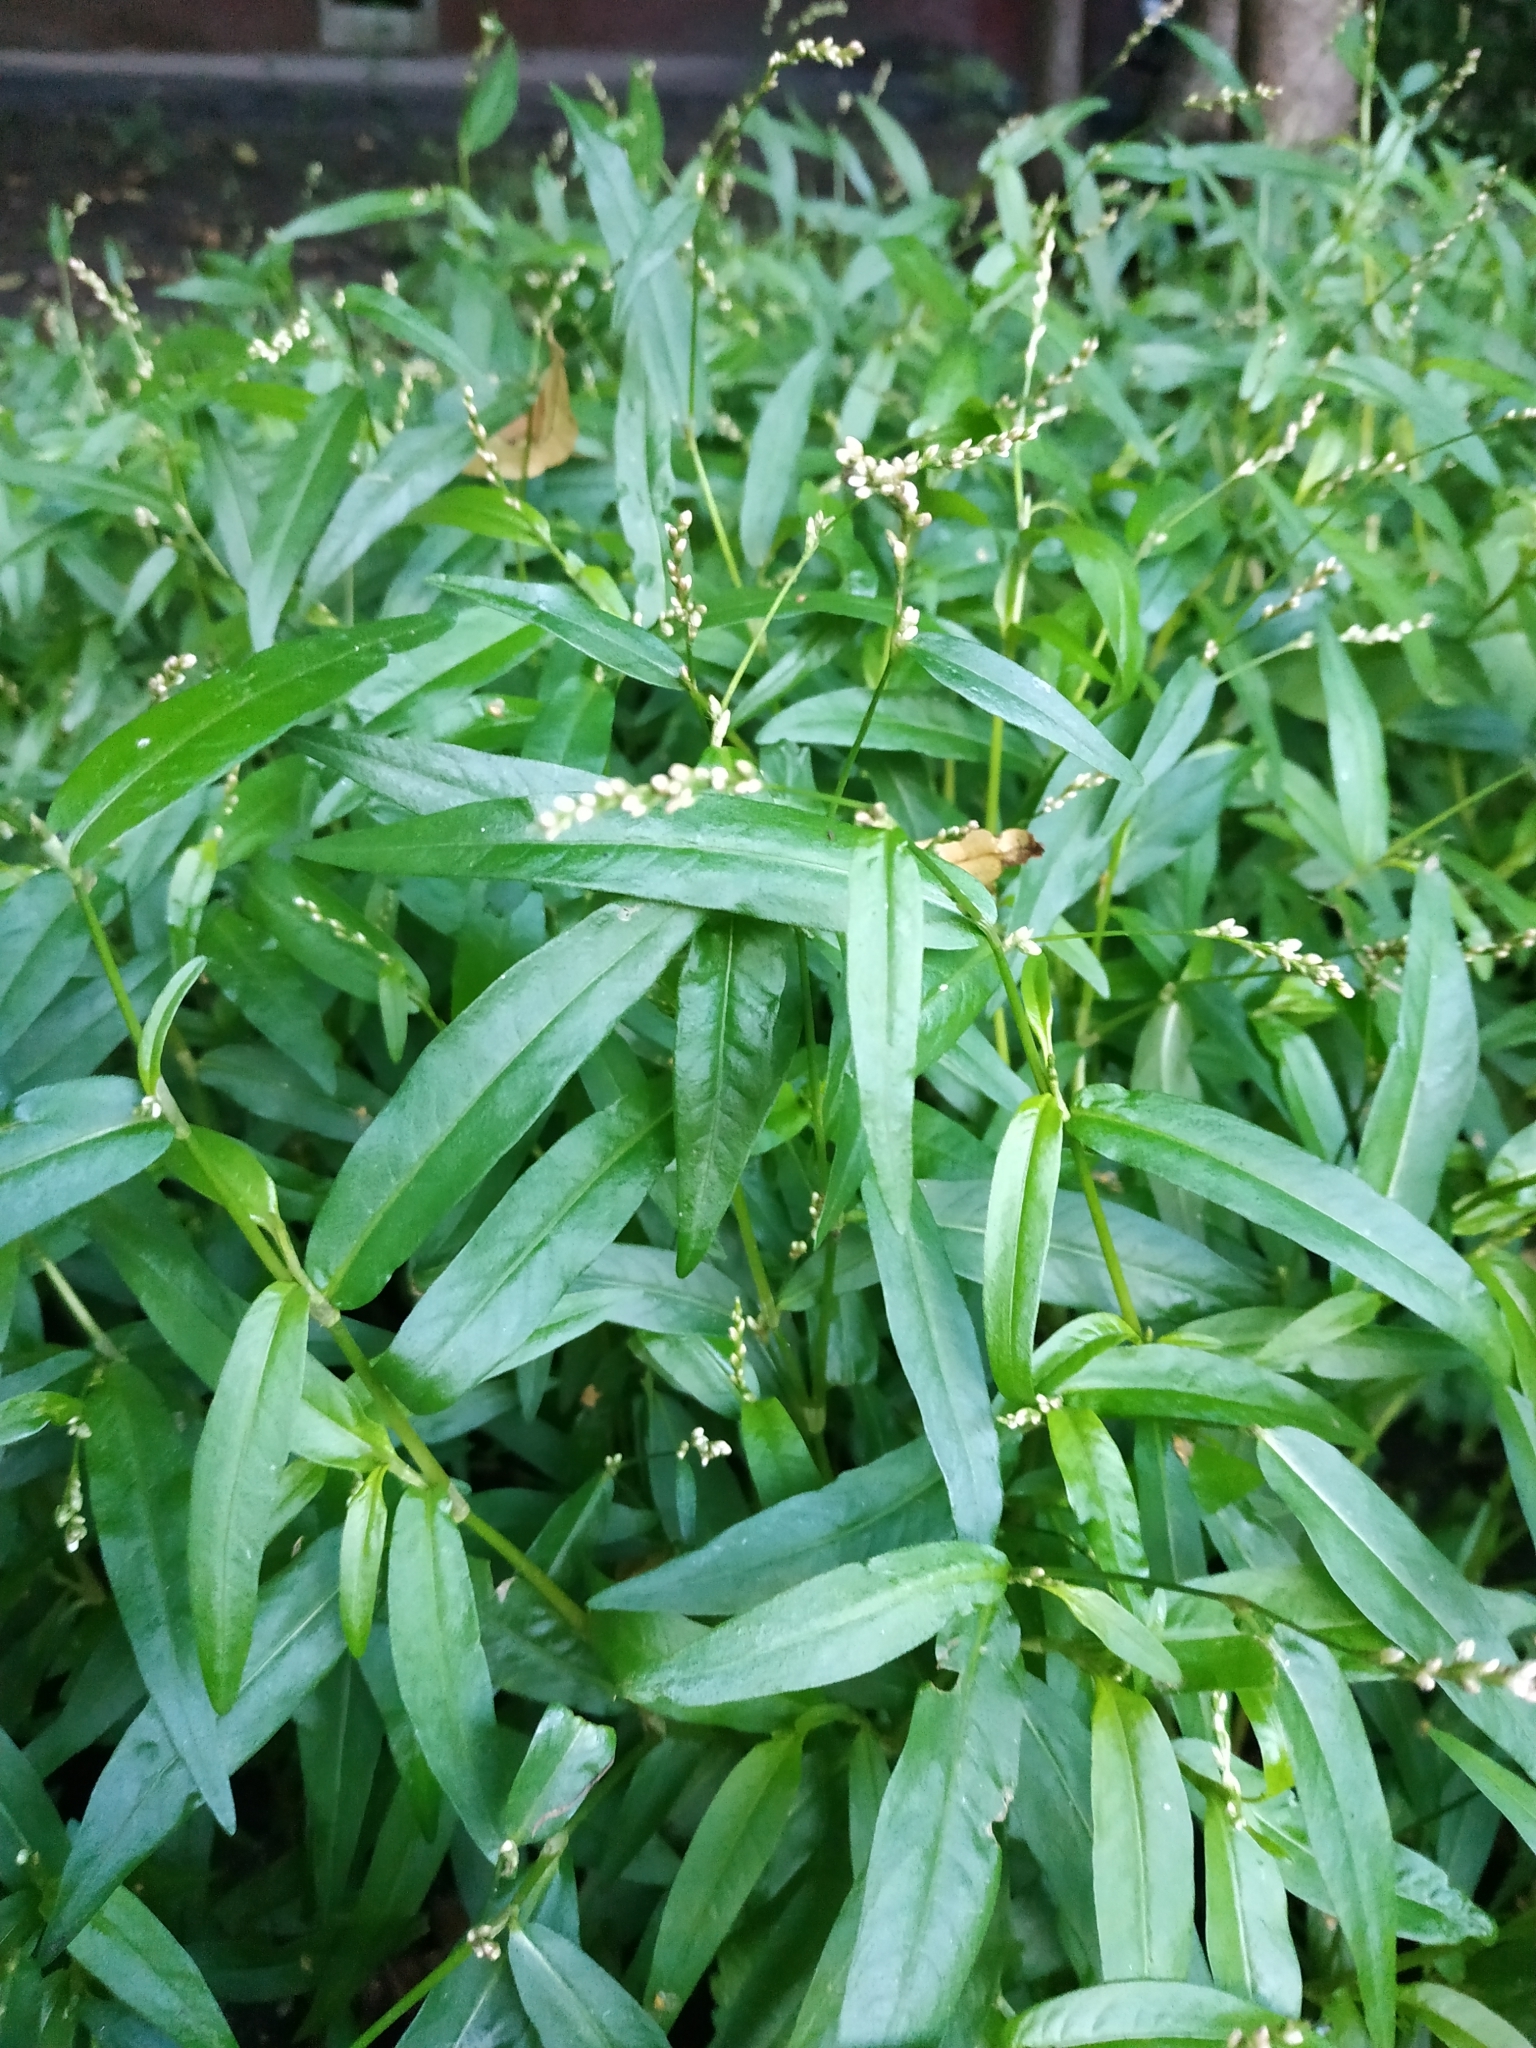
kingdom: Plantae
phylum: Tracheophyta
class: Magnoliopsida
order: Caryophyllales
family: Polygonaceae
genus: Persicaria
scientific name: Persicaria hydropiper
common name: Water-pepper
